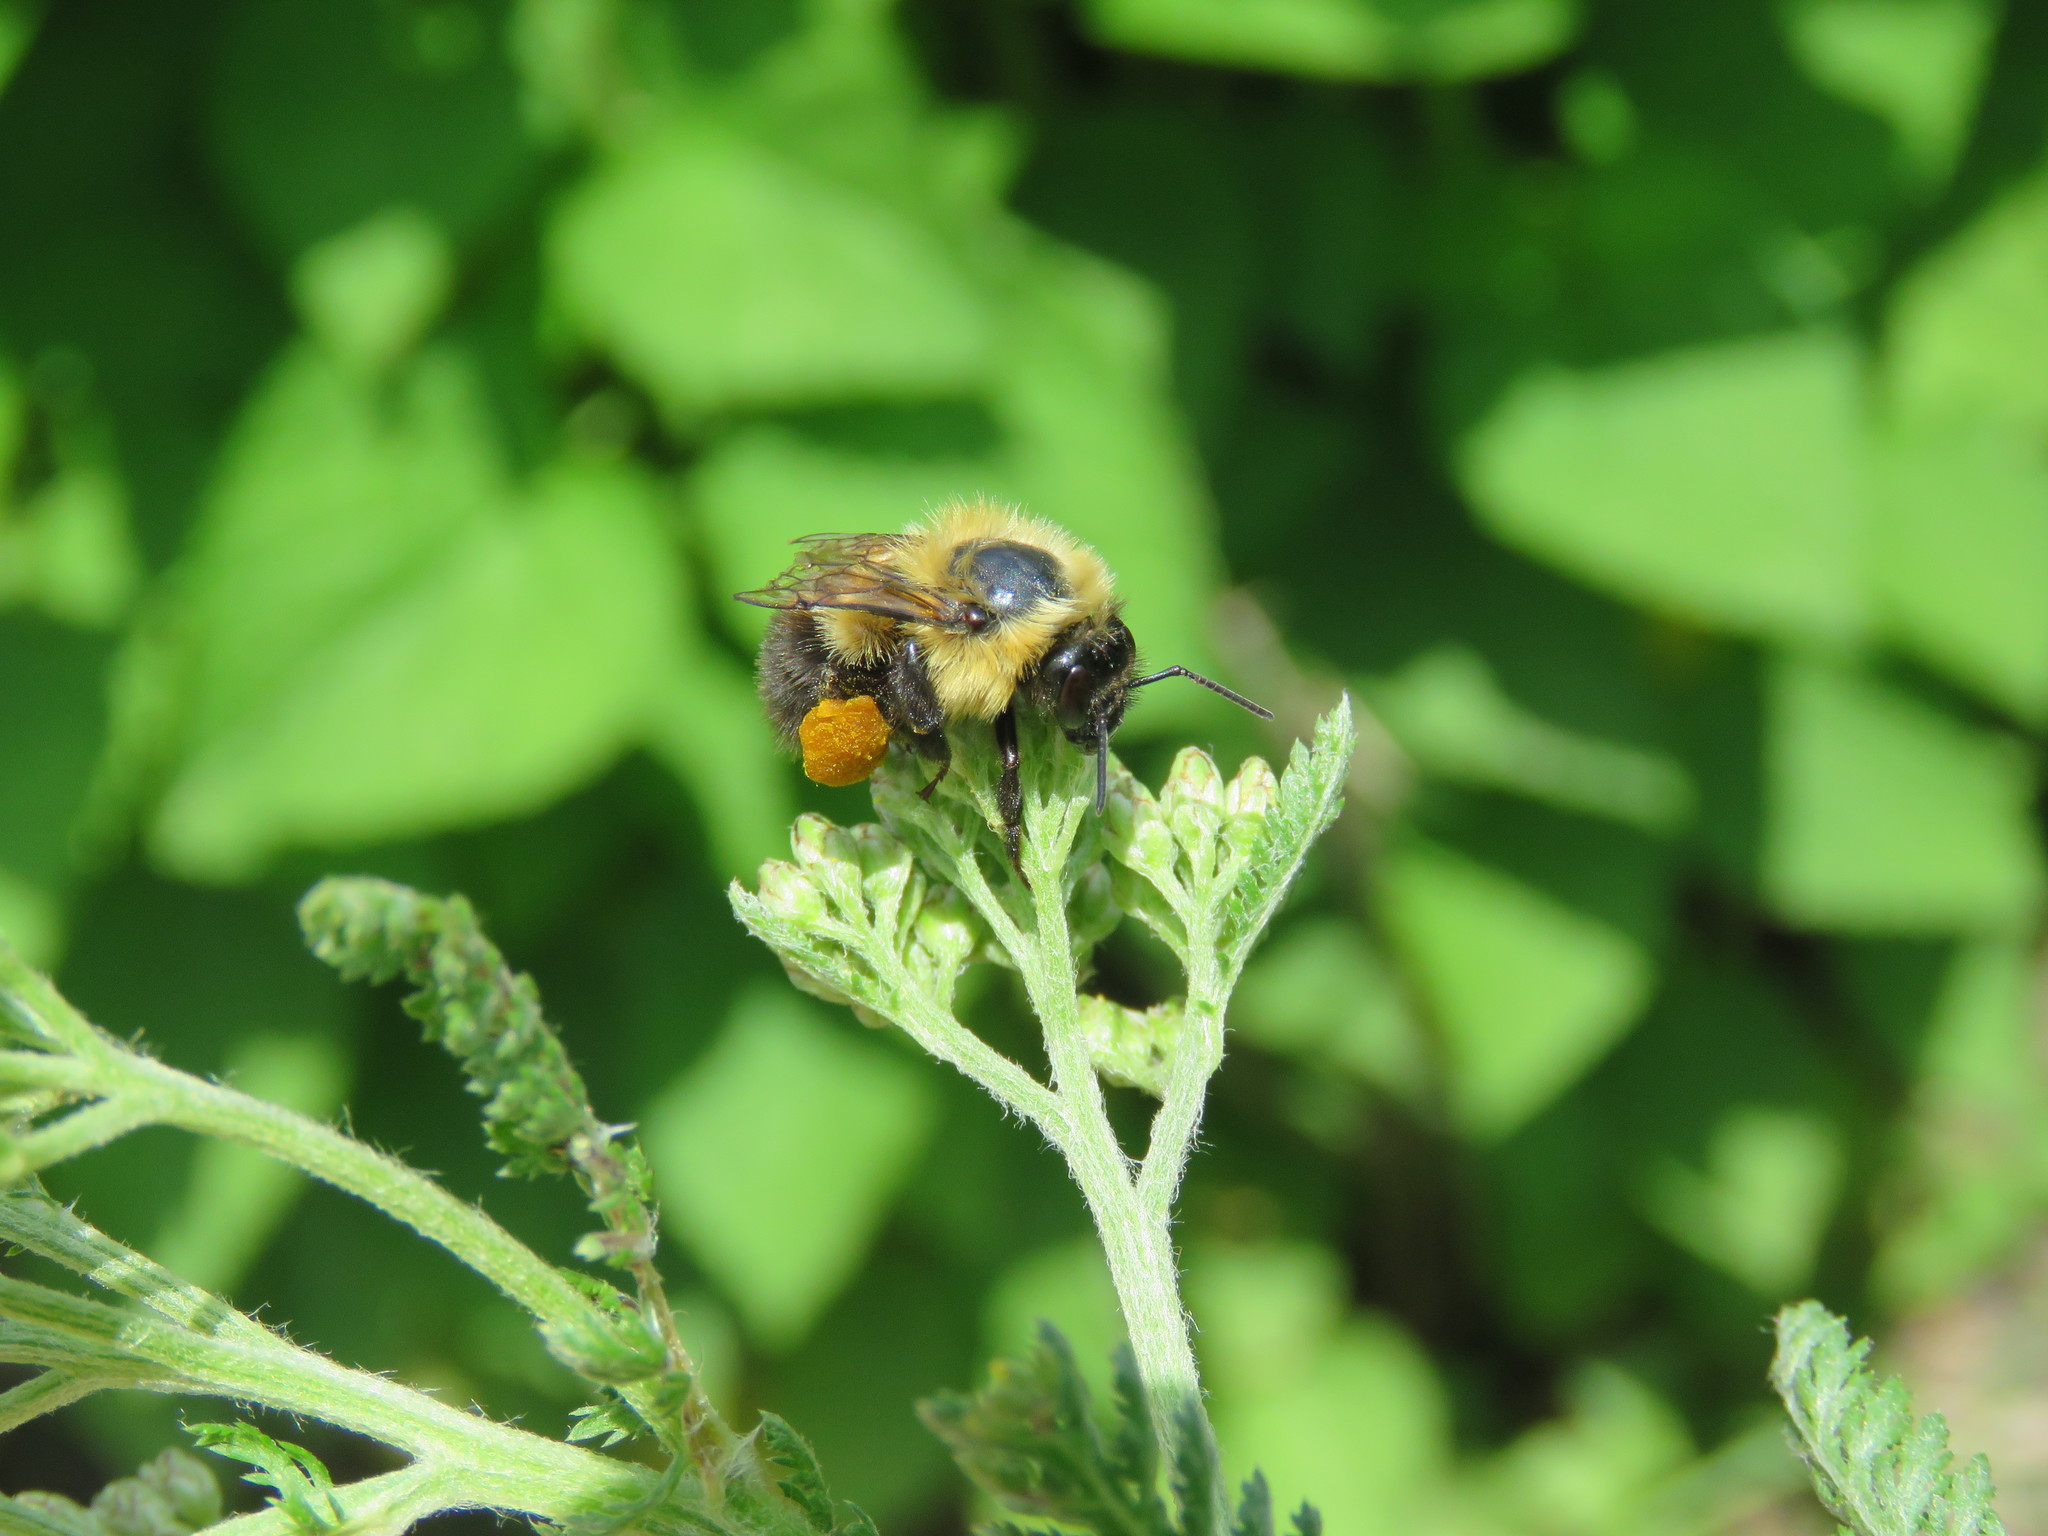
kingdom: Animalia
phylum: Arthropoda
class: Insecta
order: Hymenoptera
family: Apidae
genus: Bombus
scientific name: Bombus impatiens
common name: Common eastern bumble bee
